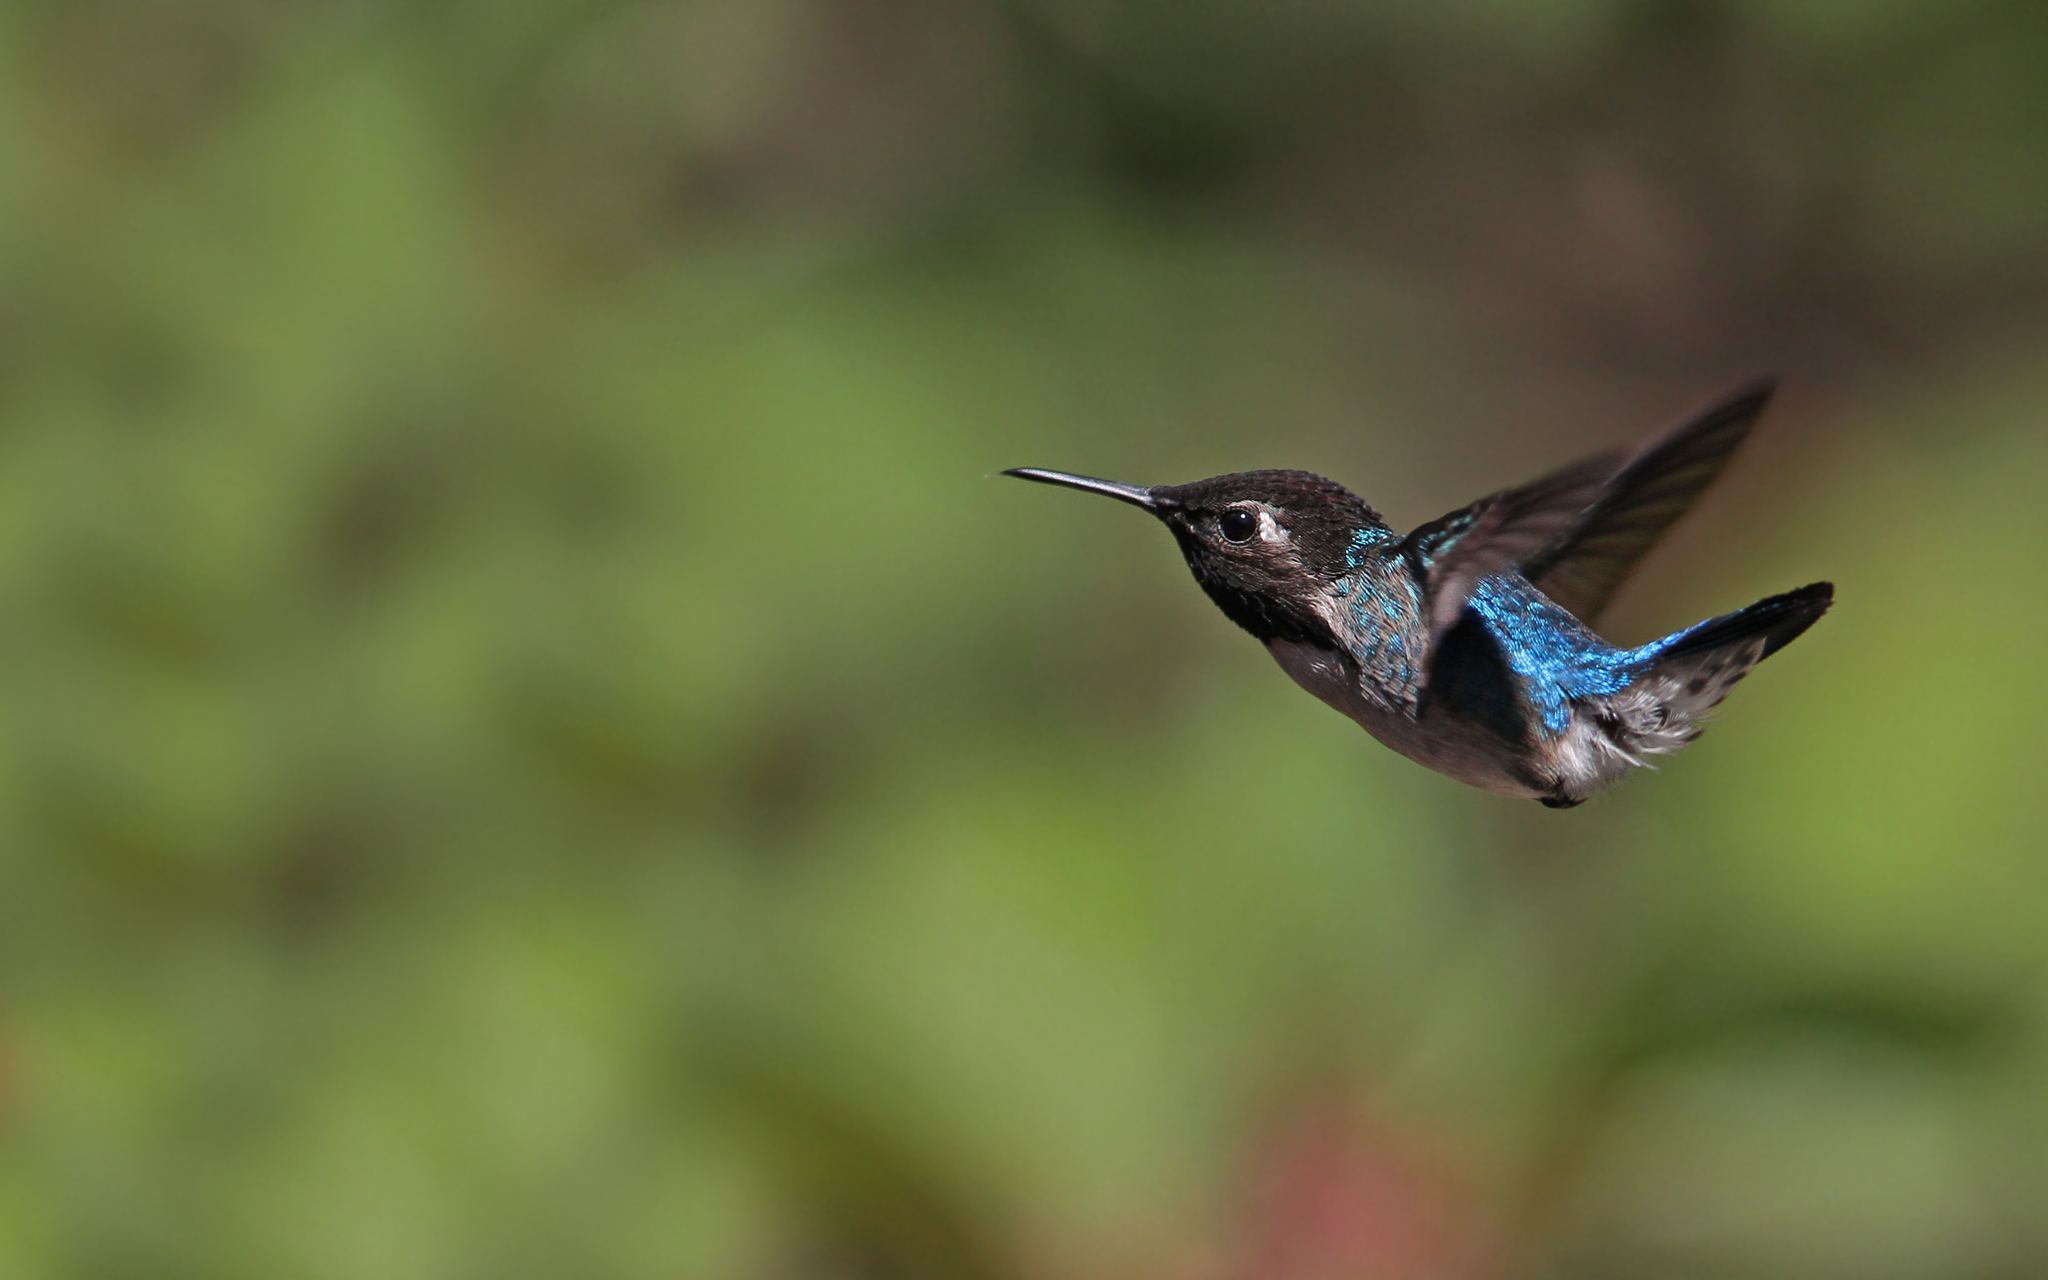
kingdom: Animalia
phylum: Chordata
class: Aves
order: Apodiformes
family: Trochilidae
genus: Mellisuga
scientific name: Mellisuga helenae
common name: Bee hummingbird
